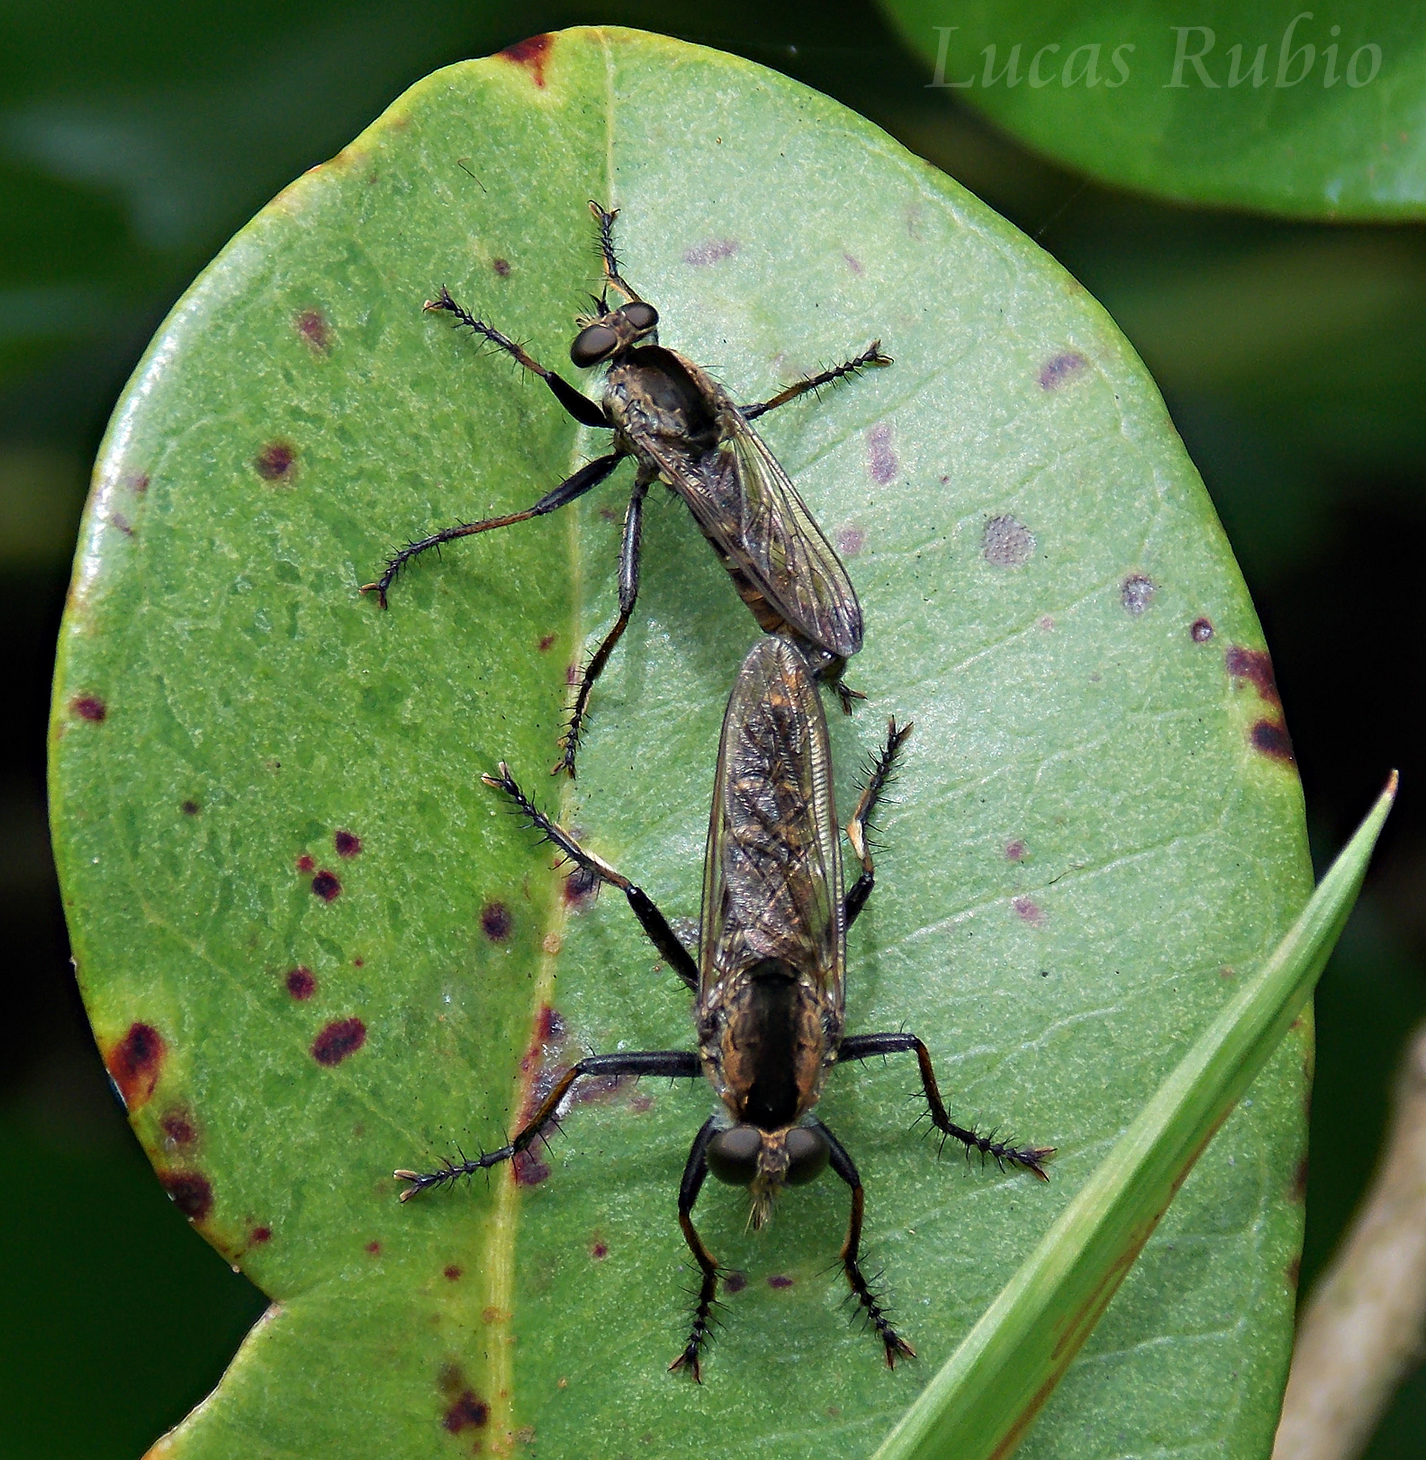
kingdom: Animalia
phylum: Arthropoda
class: Insecta
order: Diptera
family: Asilidae
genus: Eicherax
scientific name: Eicherax
